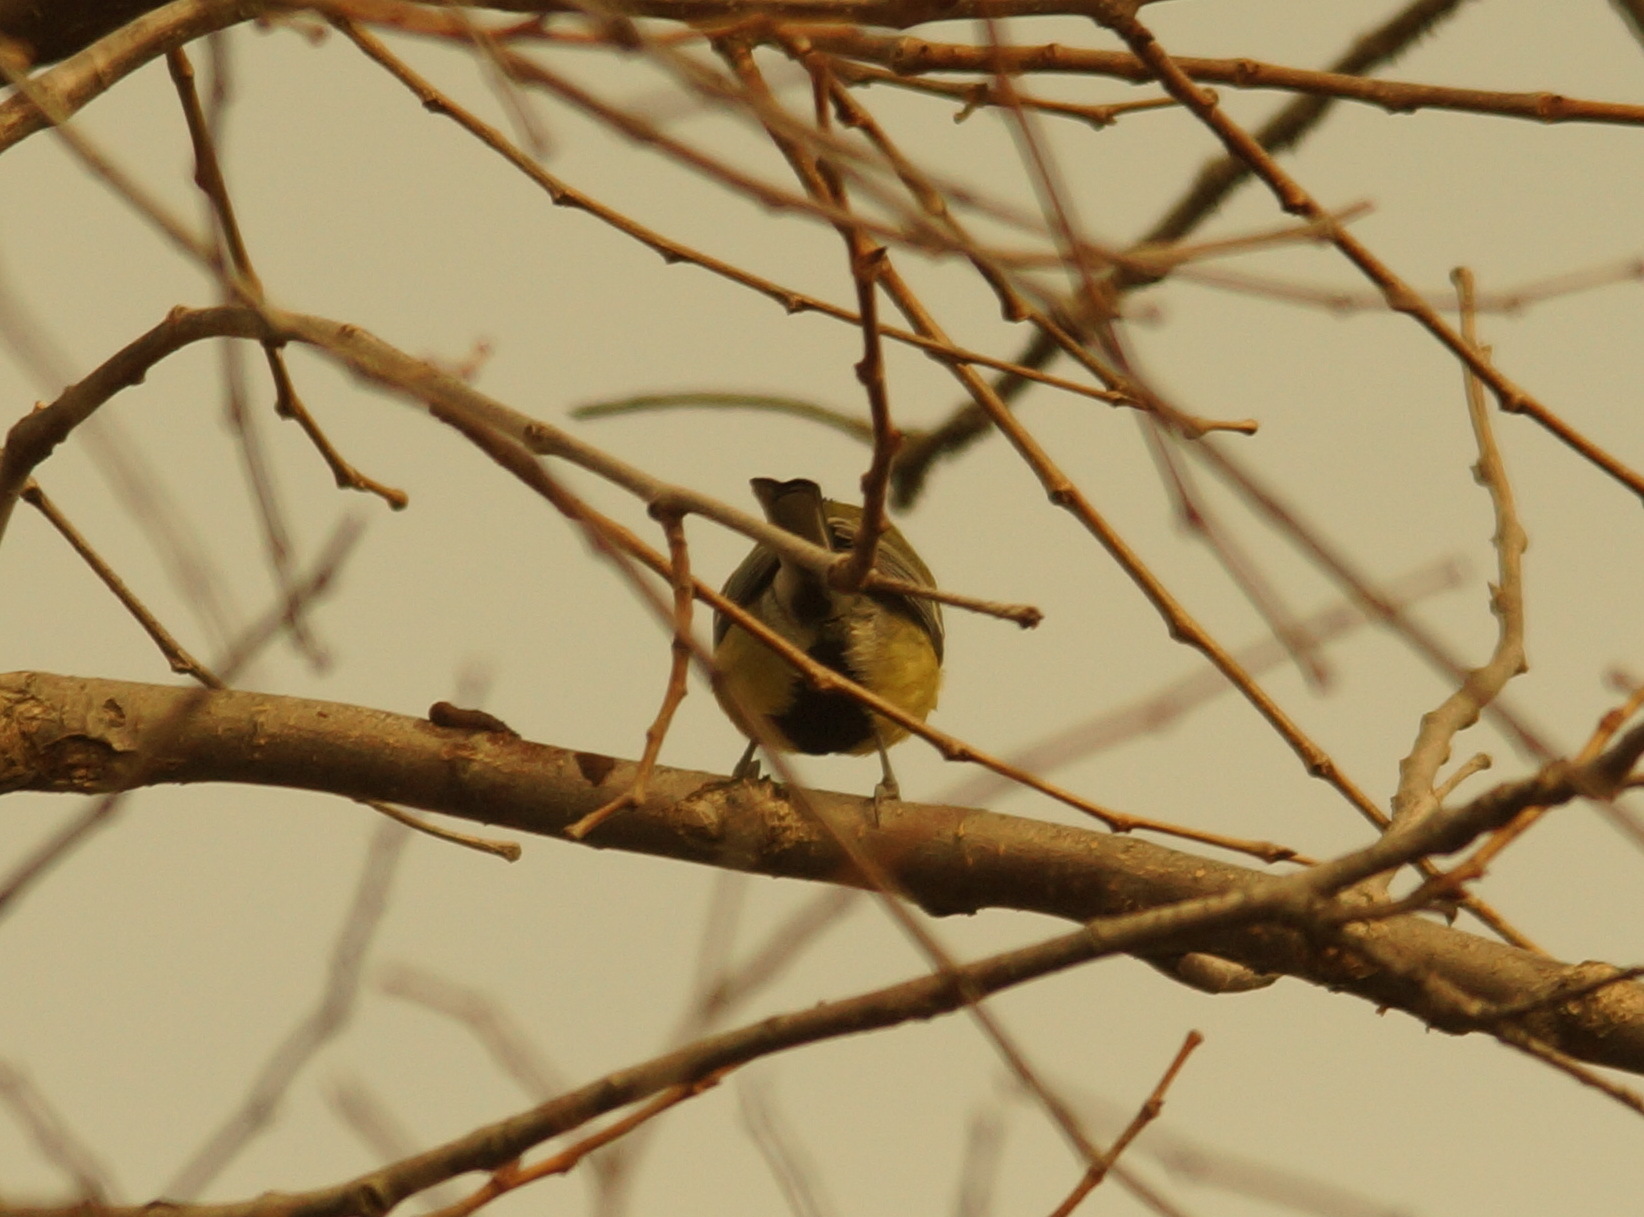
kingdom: Animalia
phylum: Chordata
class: Aves
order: Passeriformes
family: Paridae
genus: Parus
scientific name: Parus major
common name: Great tit
